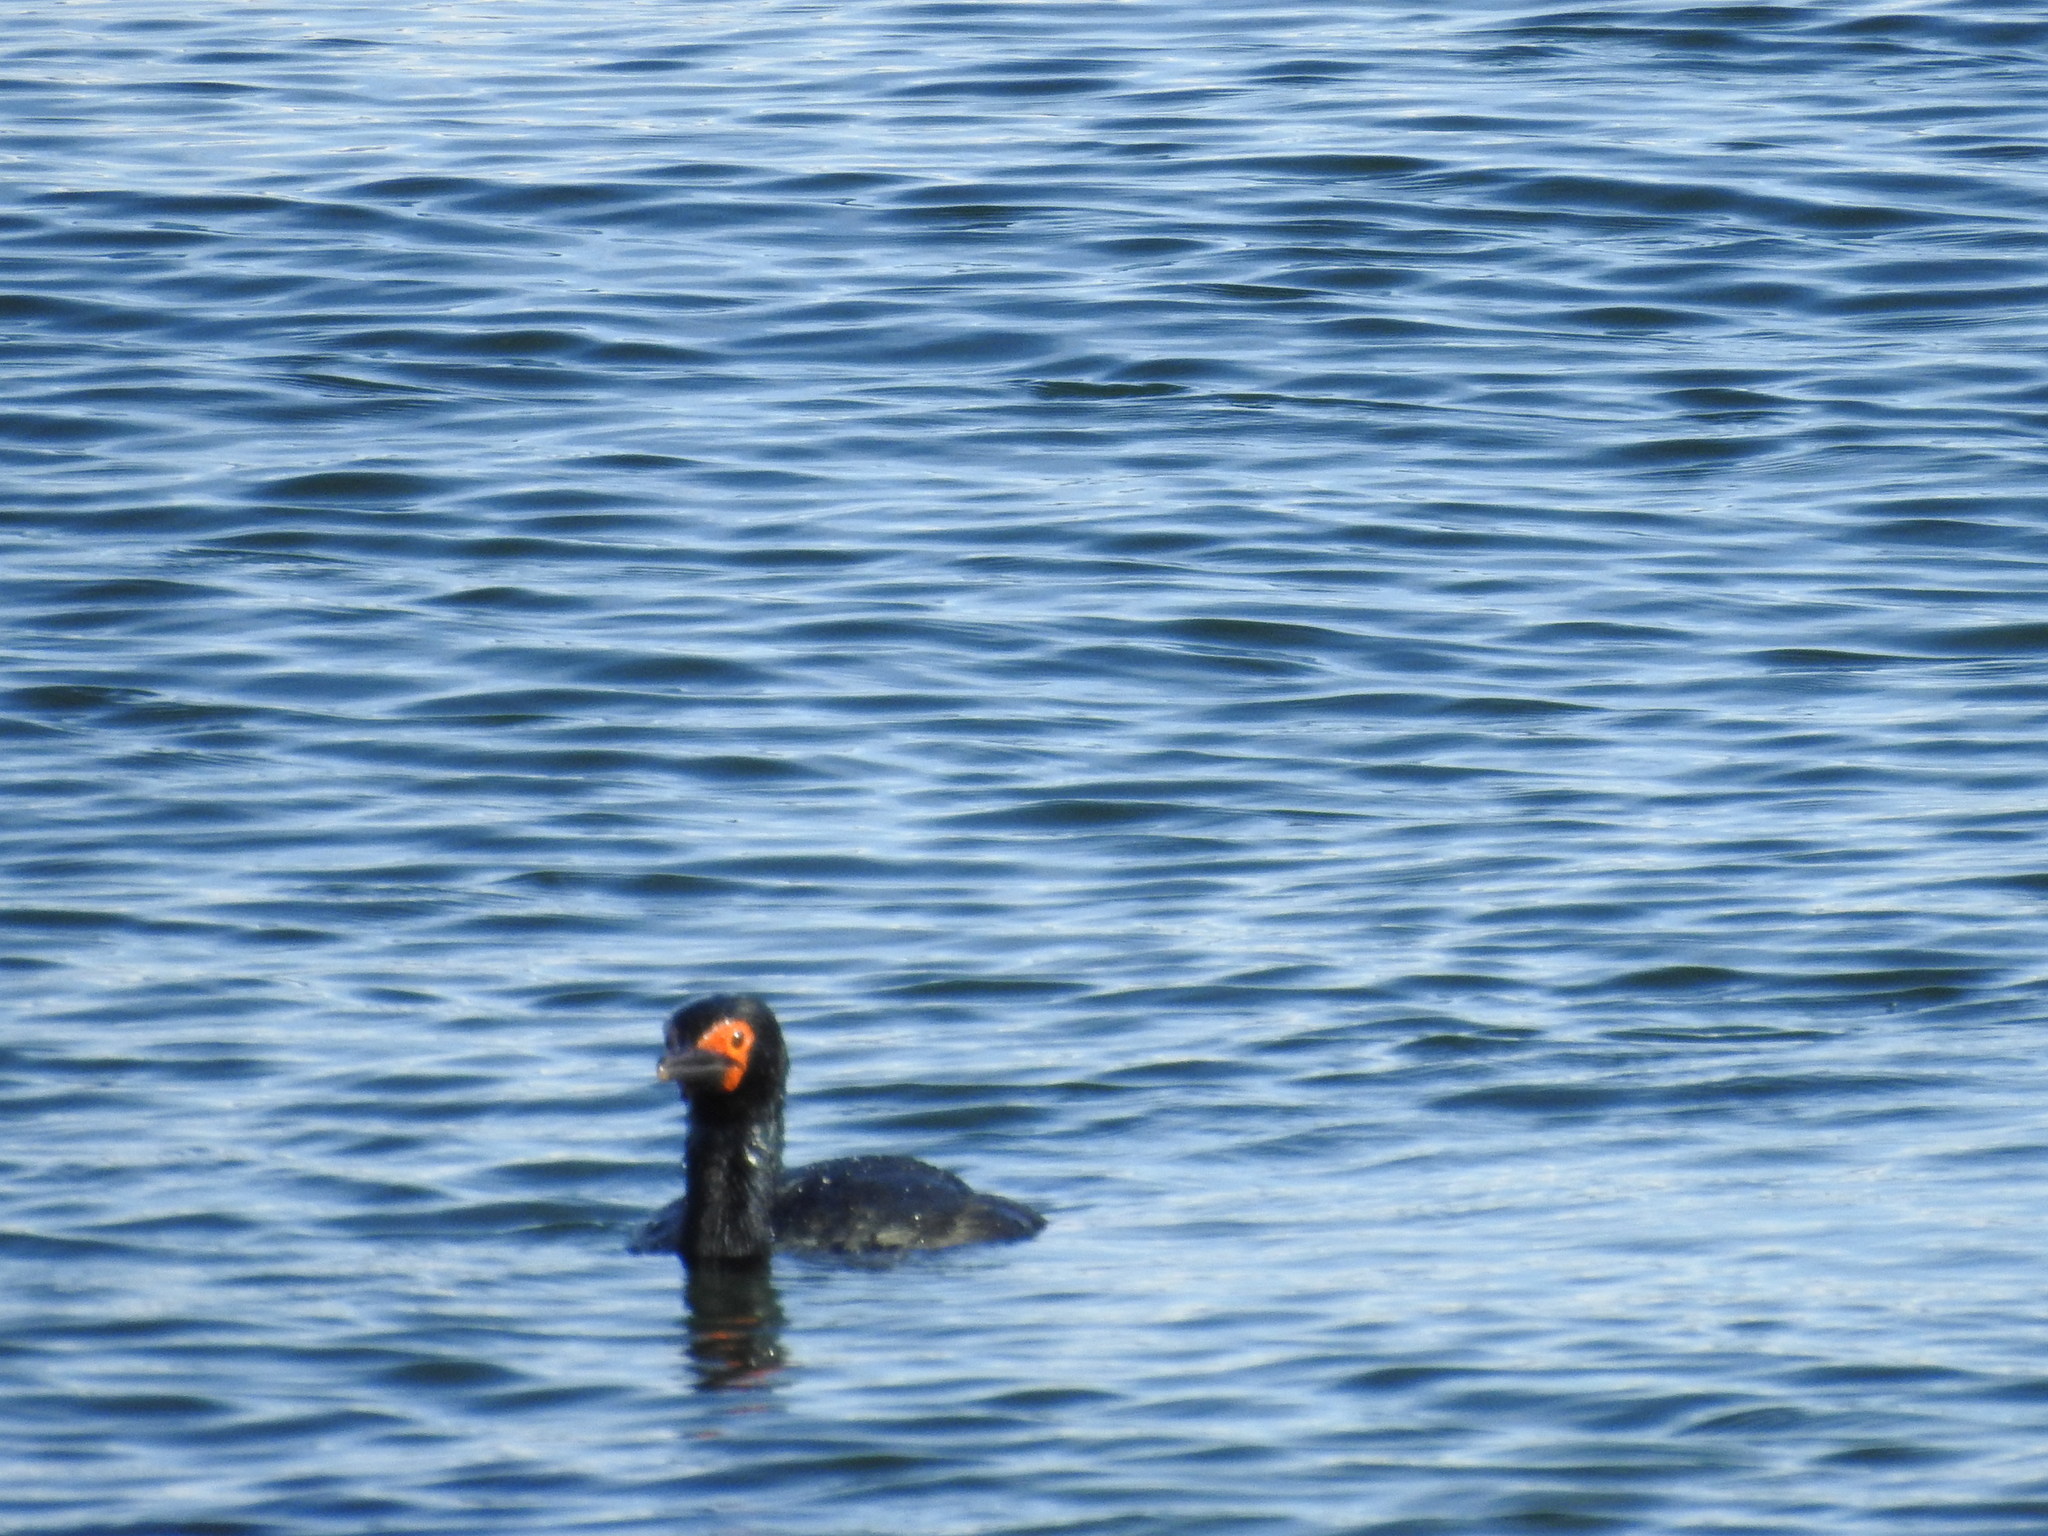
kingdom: Animalia
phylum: Chordata
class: Aves
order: Suliformes
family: Phalacrocoracidae
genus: Phalacrocorax
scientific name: Phalacrocorax magellanicus
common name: Rock shag
